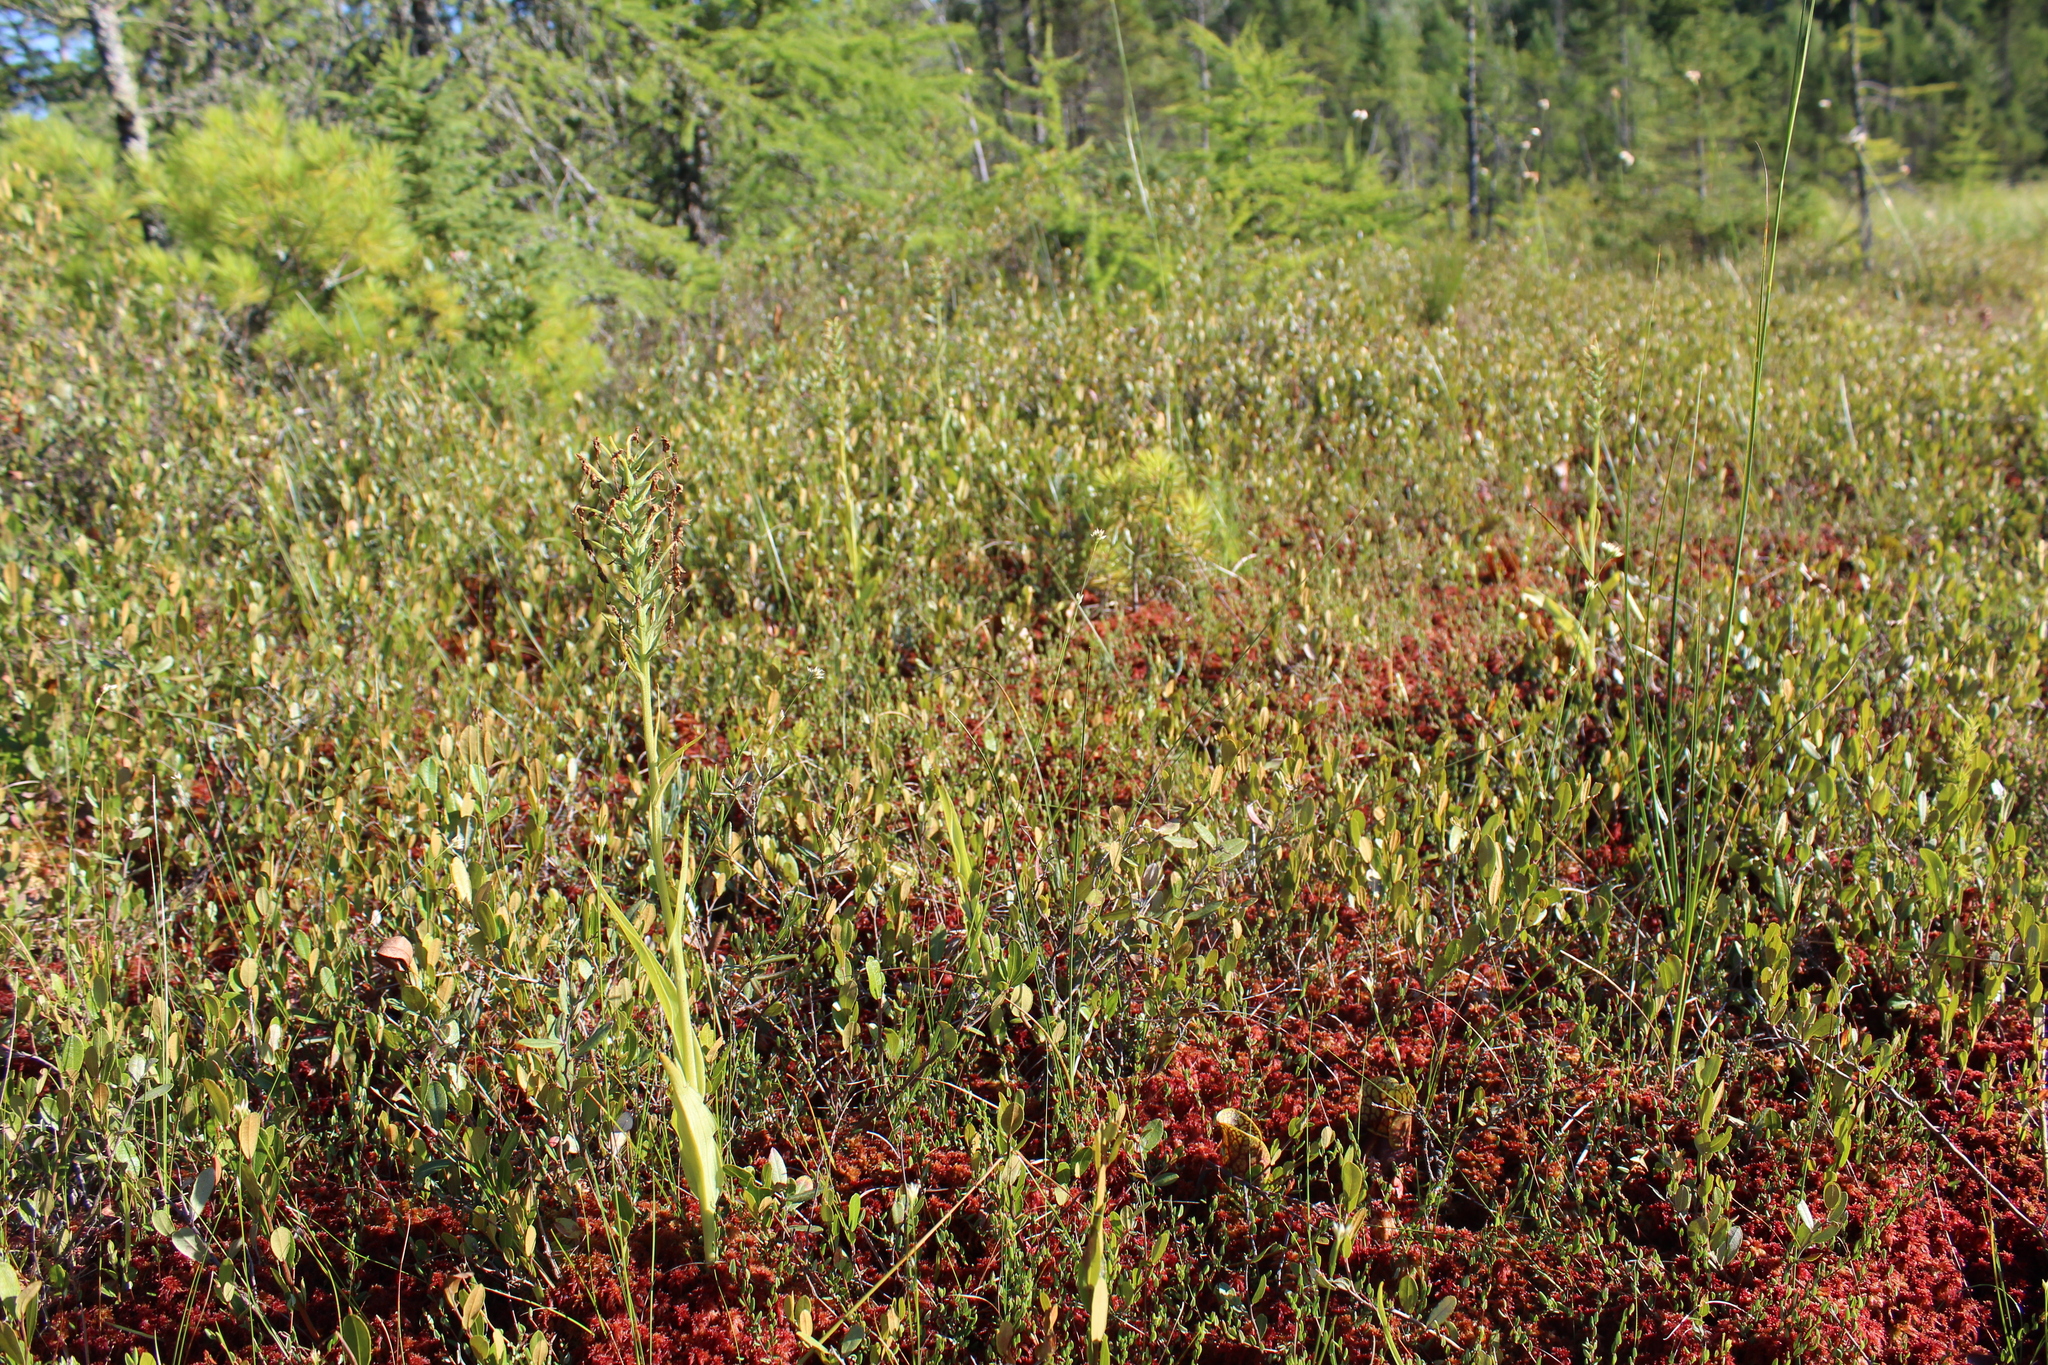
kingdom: Plantae
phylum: Tracheophyta
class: Liliopsida
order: Asparagales
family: Orchidaceae
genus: Platanthera
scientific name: Platanthera blephariglottis
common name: White fringed orchid
